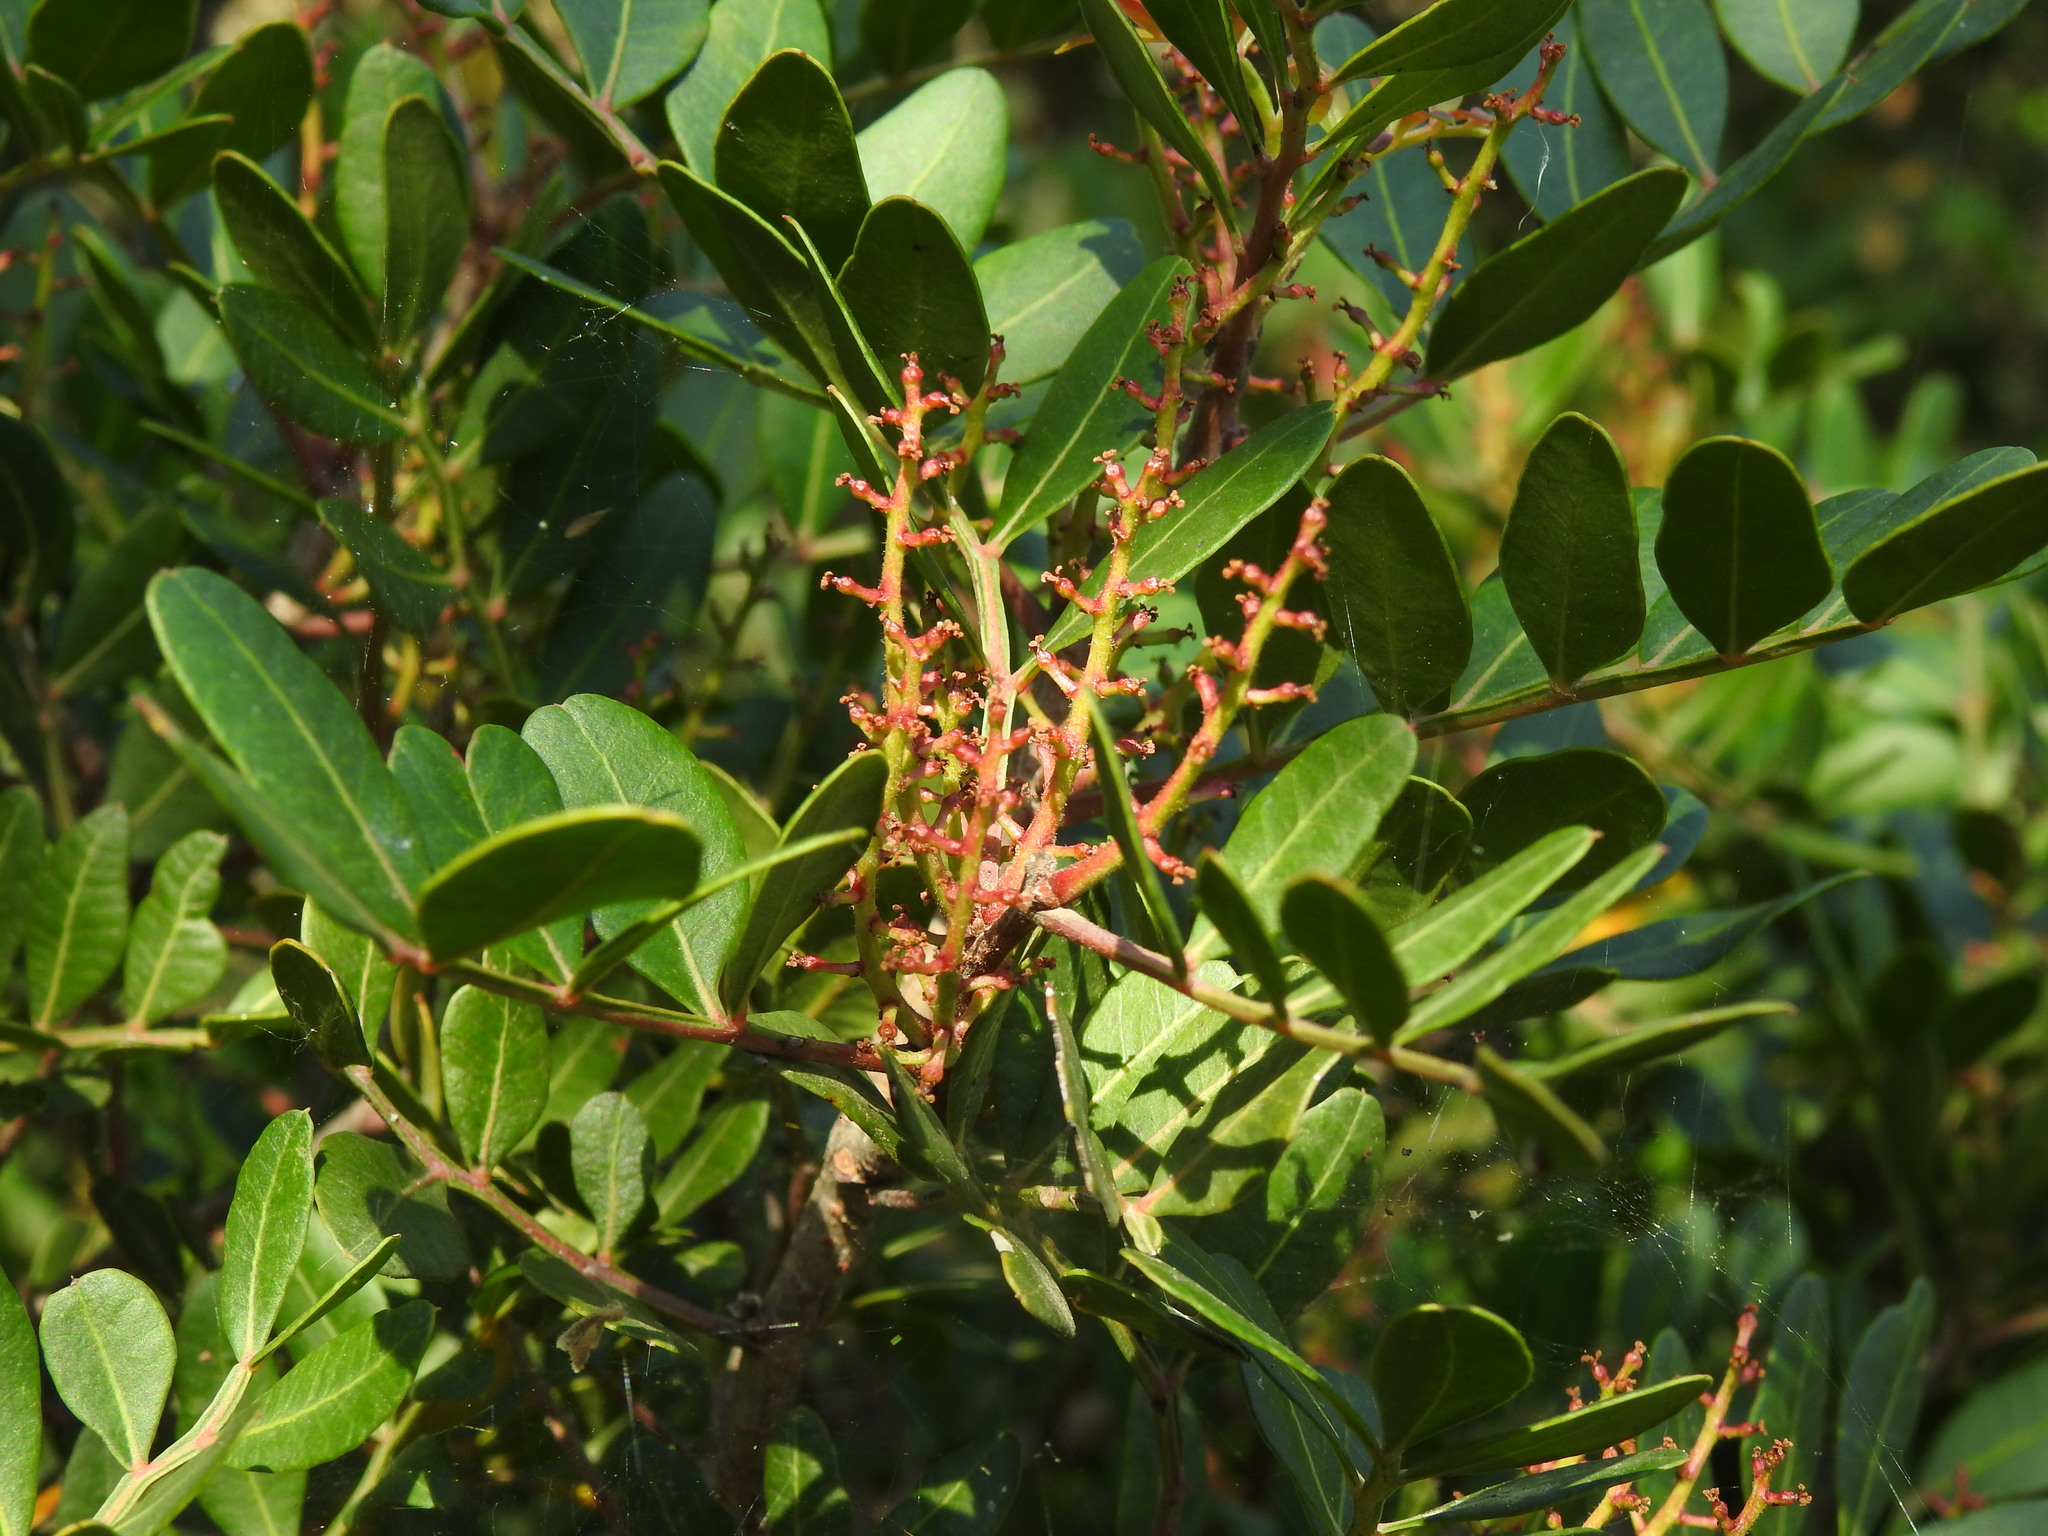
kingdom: Plantae
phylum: Tracheophyta
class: Magnoliopsida
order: Sapindales
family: Anacardiaceae
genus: Pistacia
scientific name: Pistacia lentiscus
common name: Lentisk
